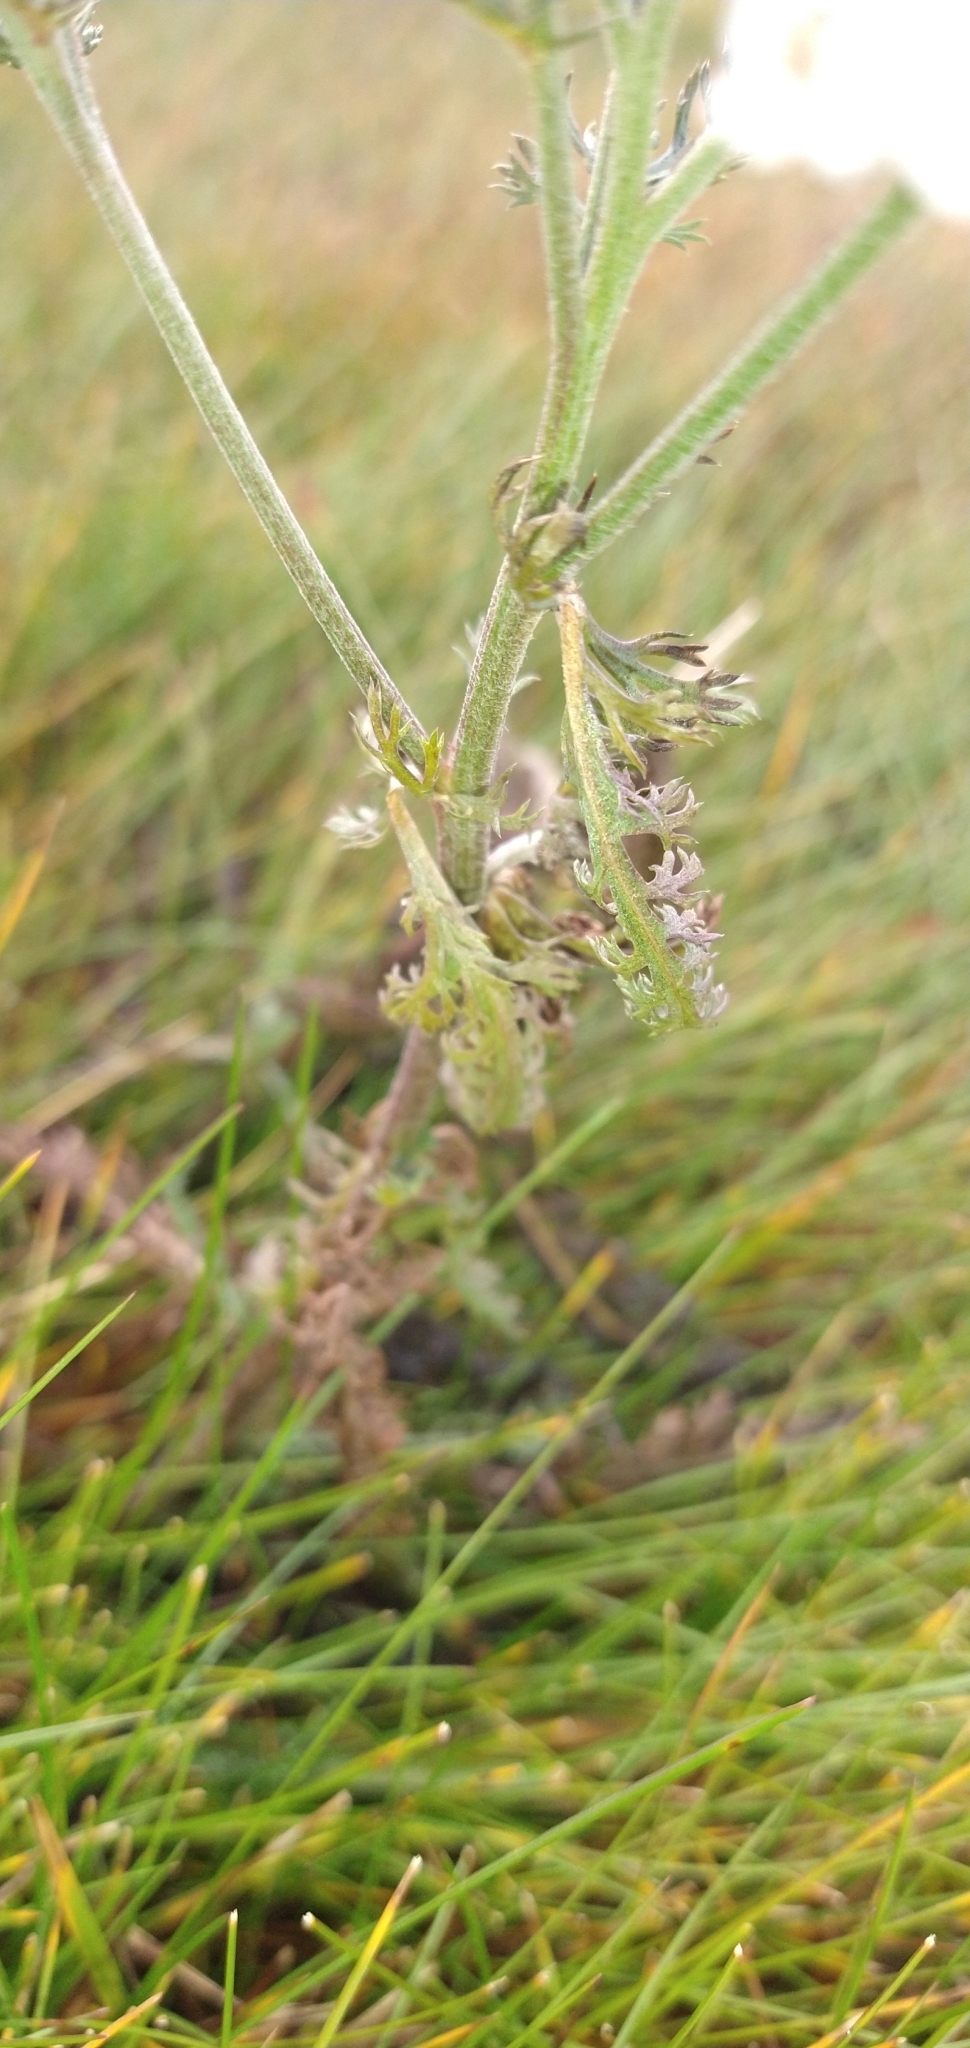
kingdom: Plantae
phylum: Tracheophyta
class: Magnoliopsida
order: Asterales
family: Asteraceae
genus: Achillea
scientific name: Achillea millefolium
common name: Yarrow
